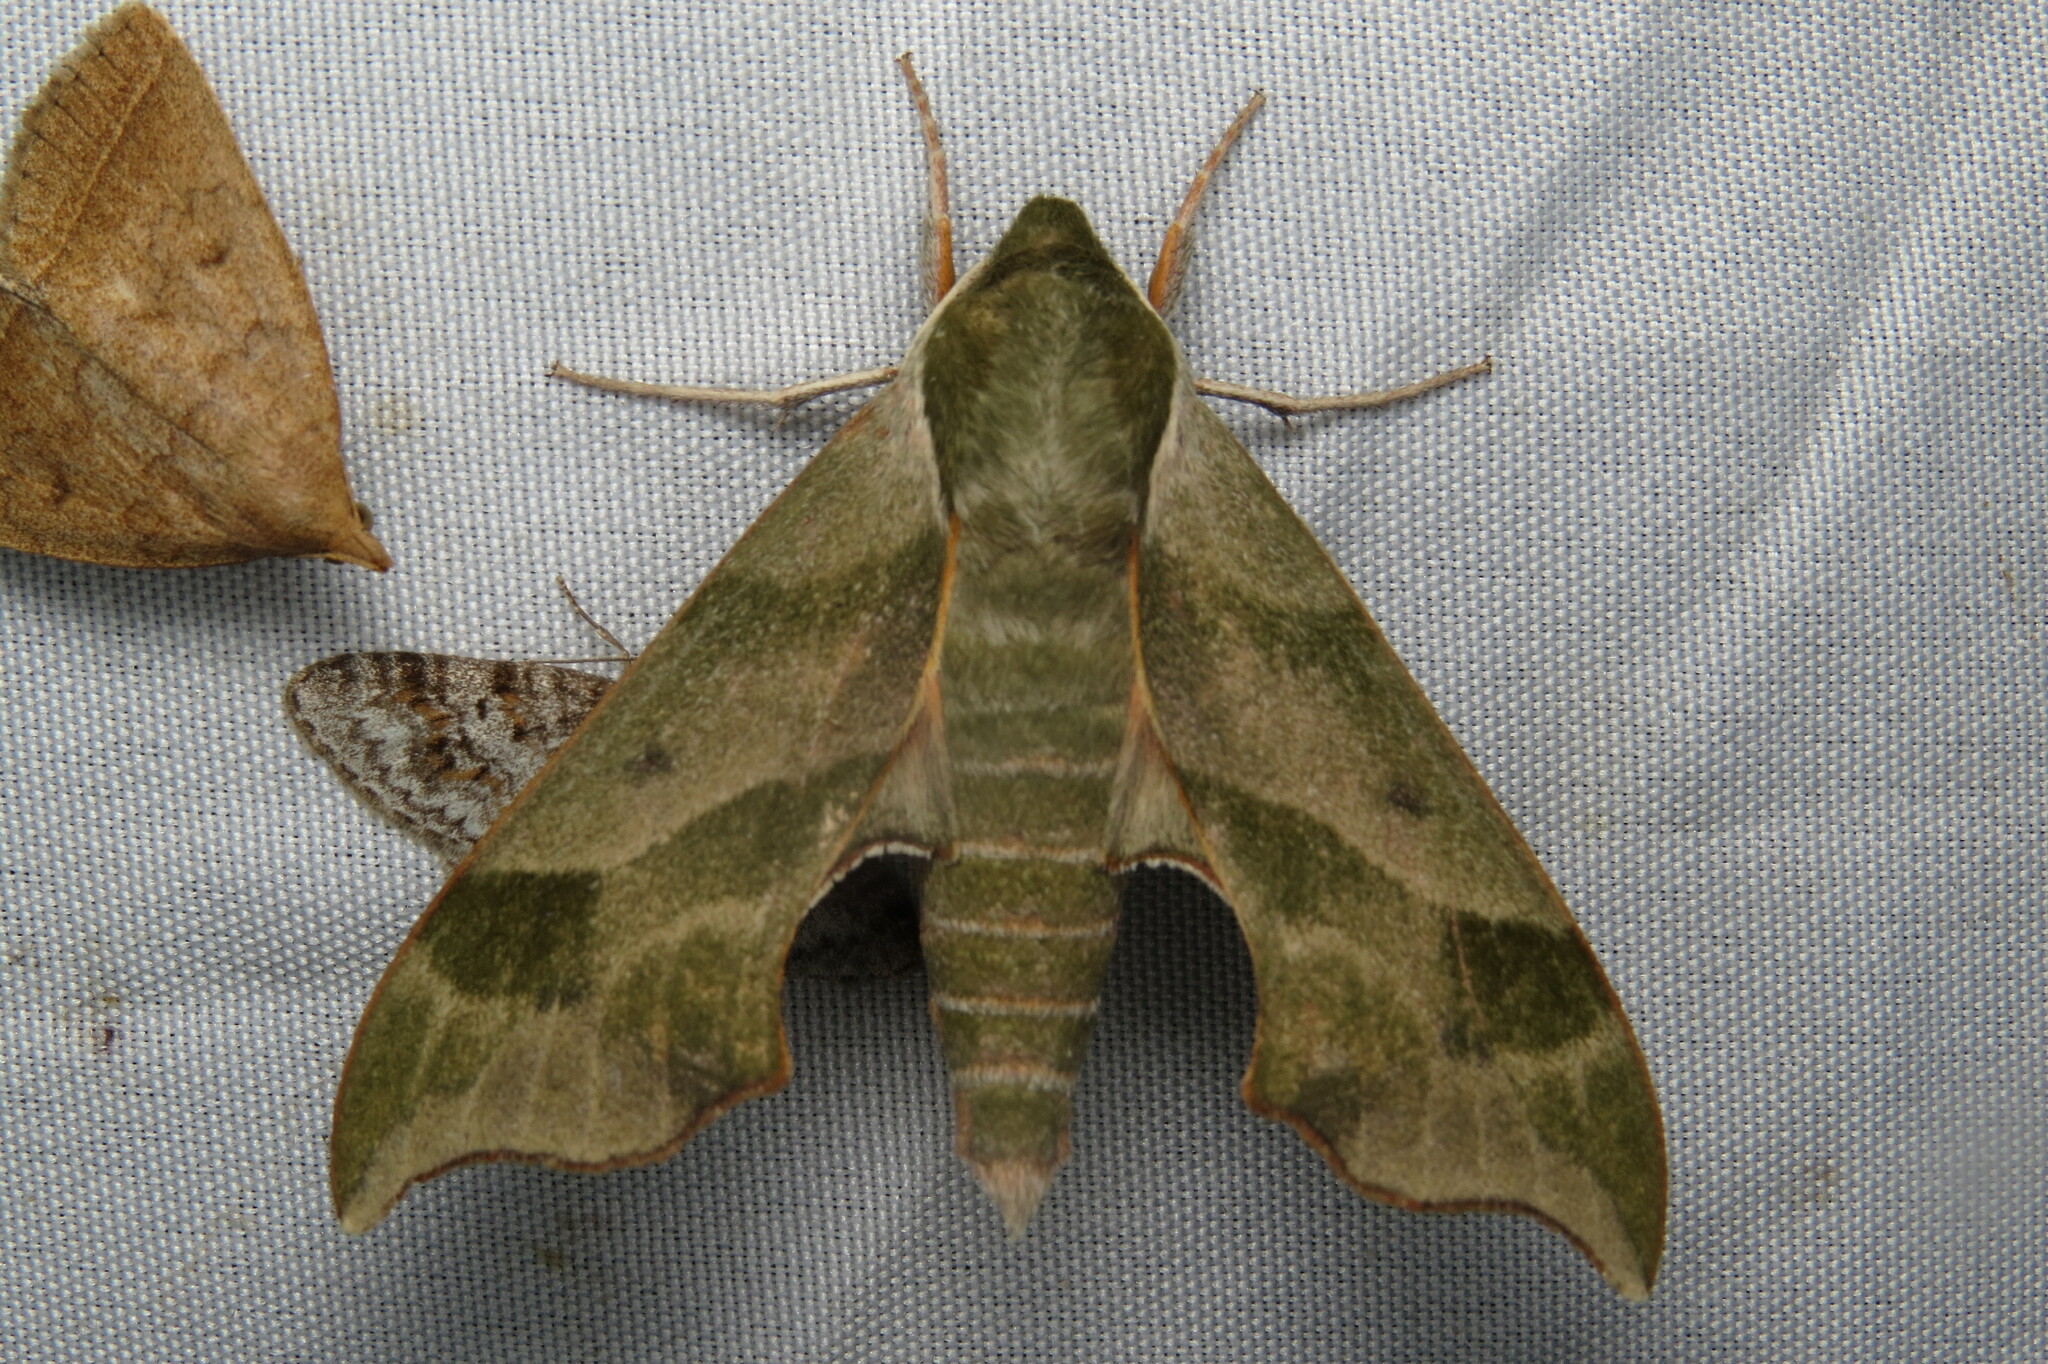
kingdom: Animalia
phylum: Arthropoda
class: Insecta
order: Lepidoptera
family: Sphingidae
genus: Darapsa
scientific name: Darapsa myron
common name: Hog sphinx
